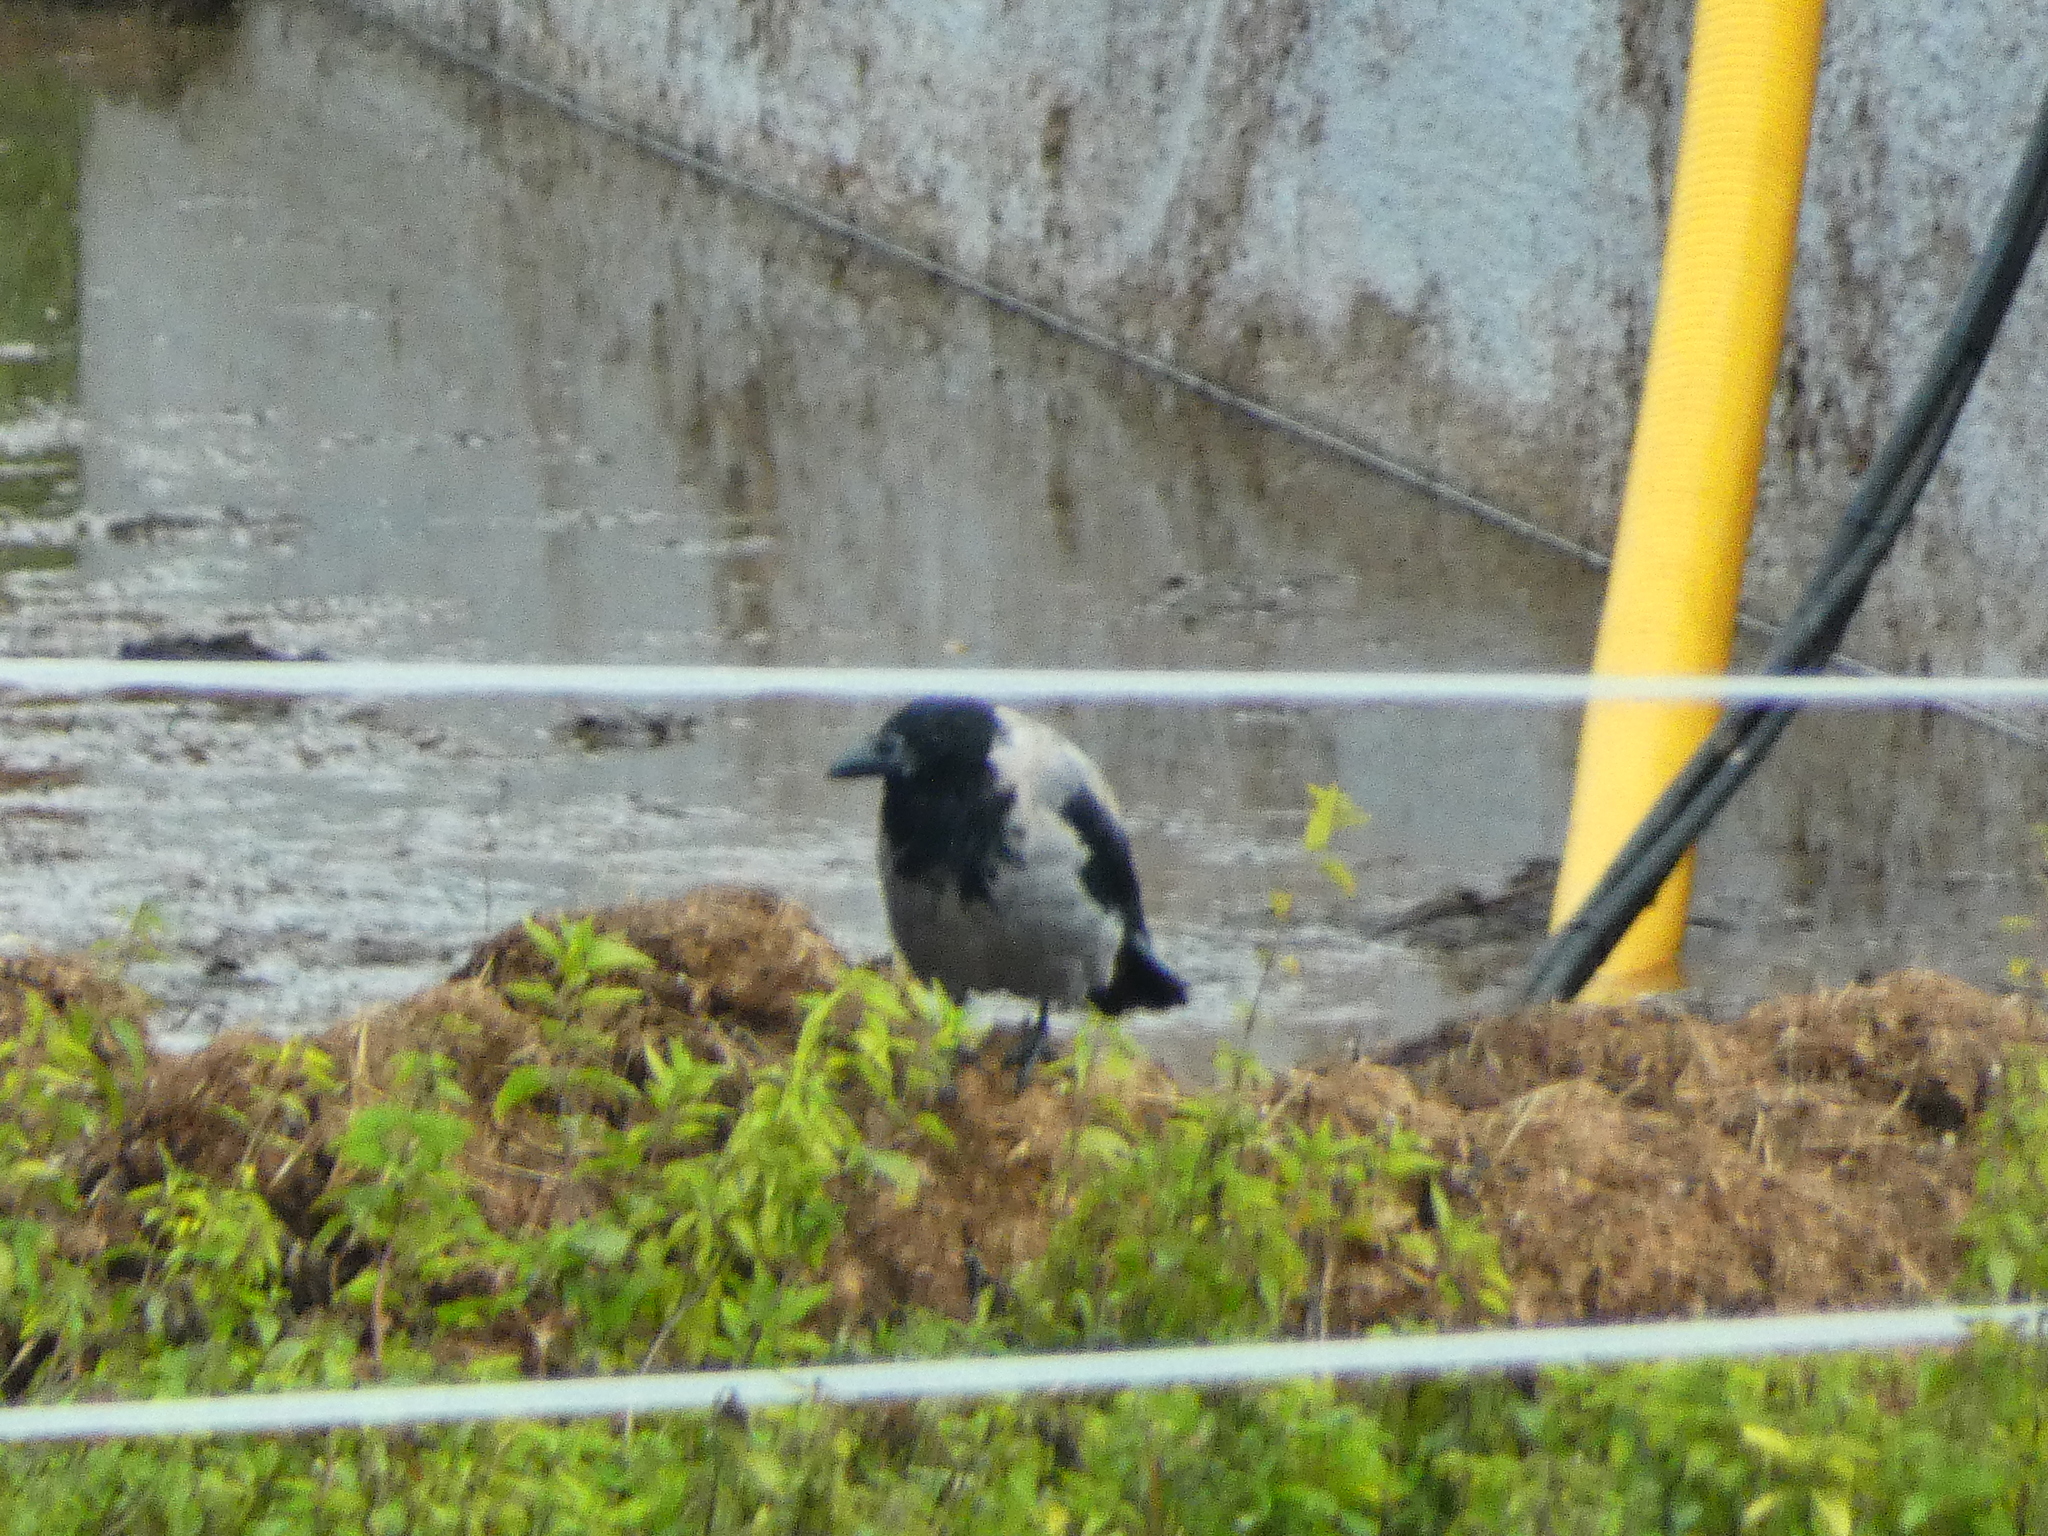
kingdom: Animalia
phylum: Chordata
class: Aves
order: Passeriformes
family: Corvidae
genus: Corvus
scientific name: Corvus cornix
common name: Hooded crow
